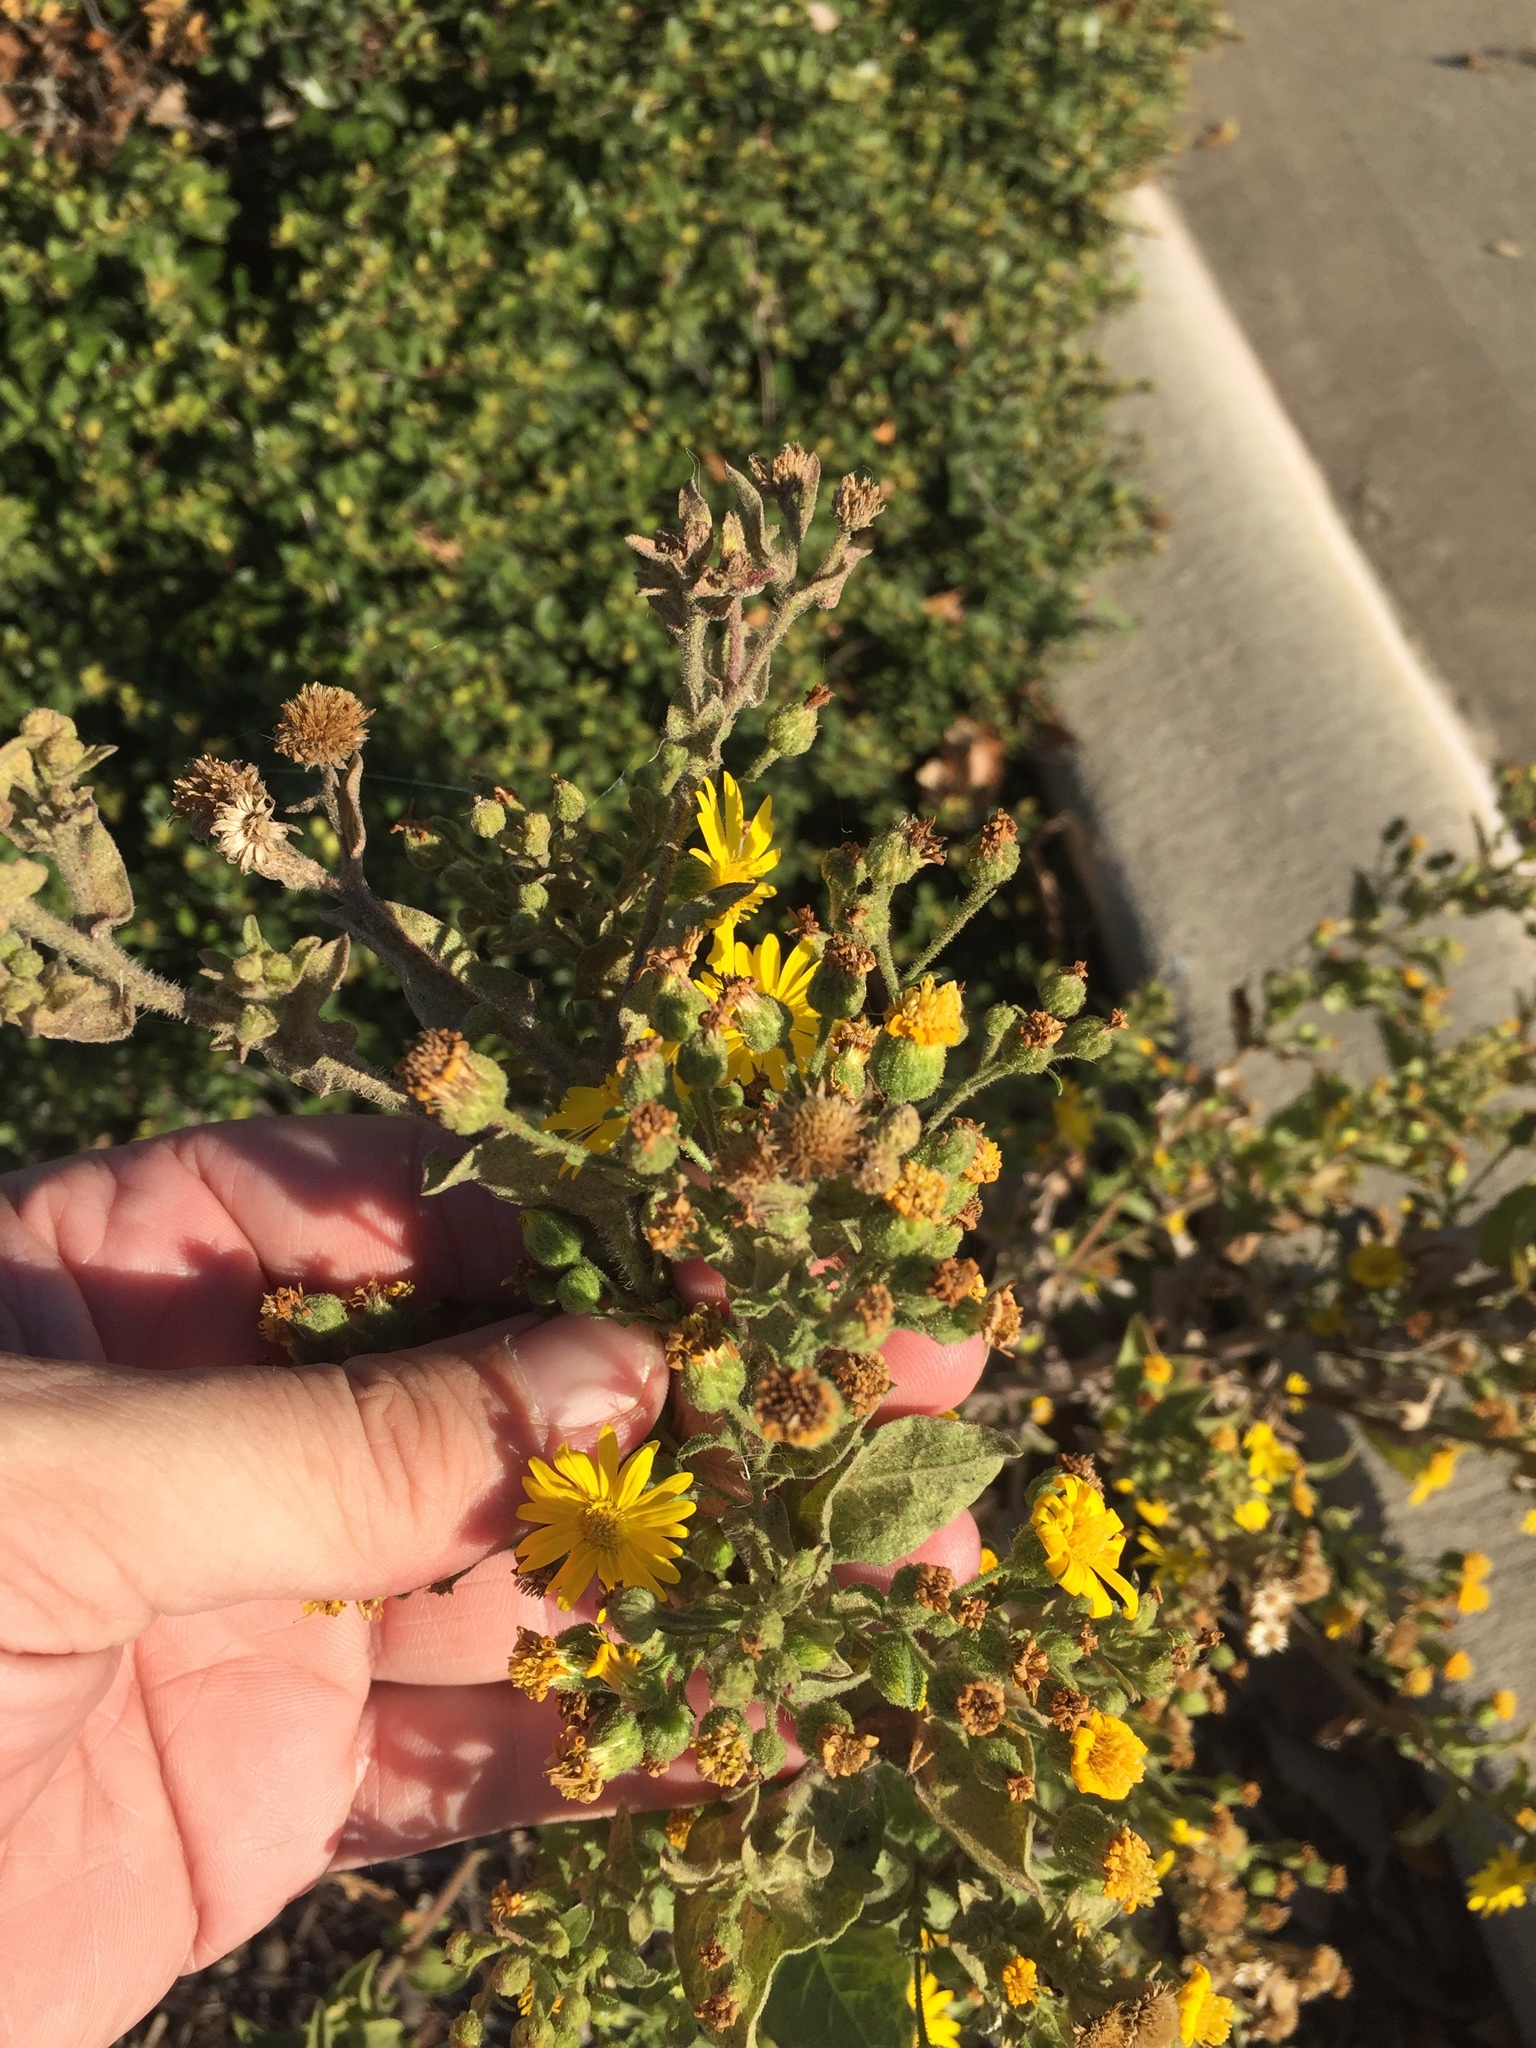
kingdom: Plantae
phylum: Tracheophyta
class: Magnoliopsida
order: Asterales
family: Asteraceae
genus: Heterotheca
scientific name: Heterotheca subaxillaris
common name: Camphorweed
